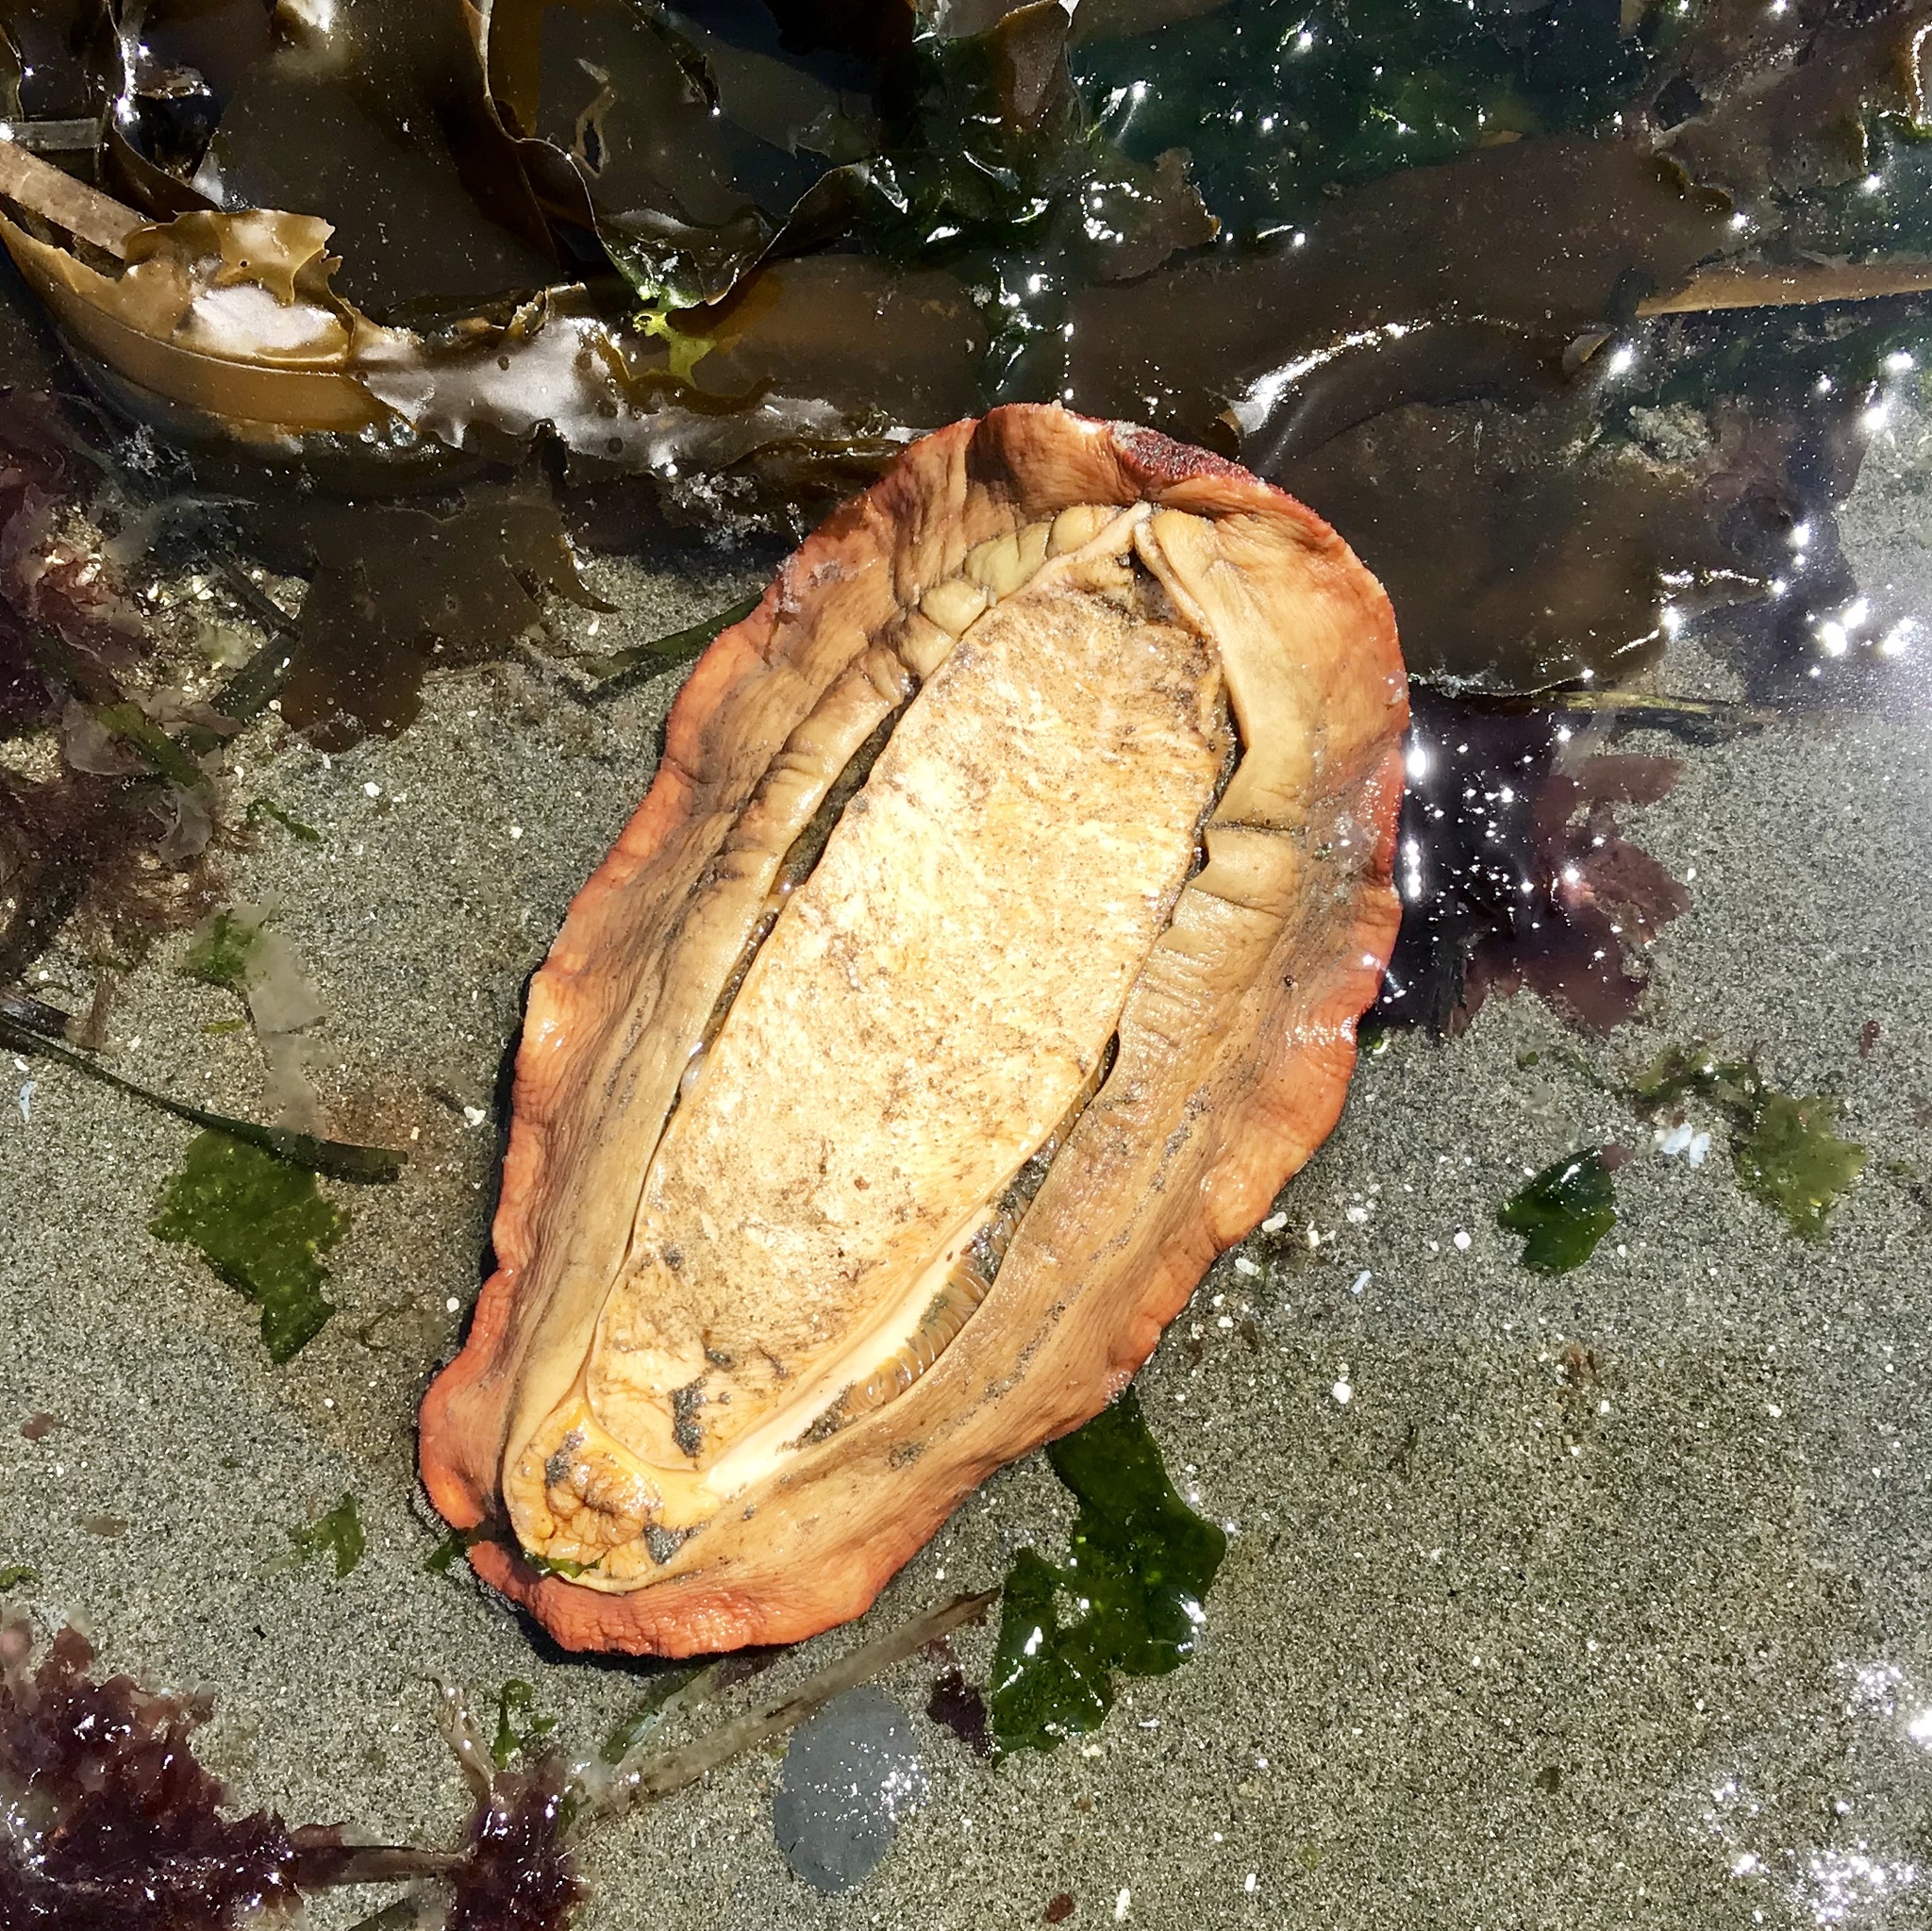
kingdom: Animalia
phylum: Mollusca
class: Polyplacophora
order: Chitonida
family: Acanthochitonidae
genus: Cryptochiton
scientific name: Cryptochiton stelleri
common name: Giant pacific chiton
